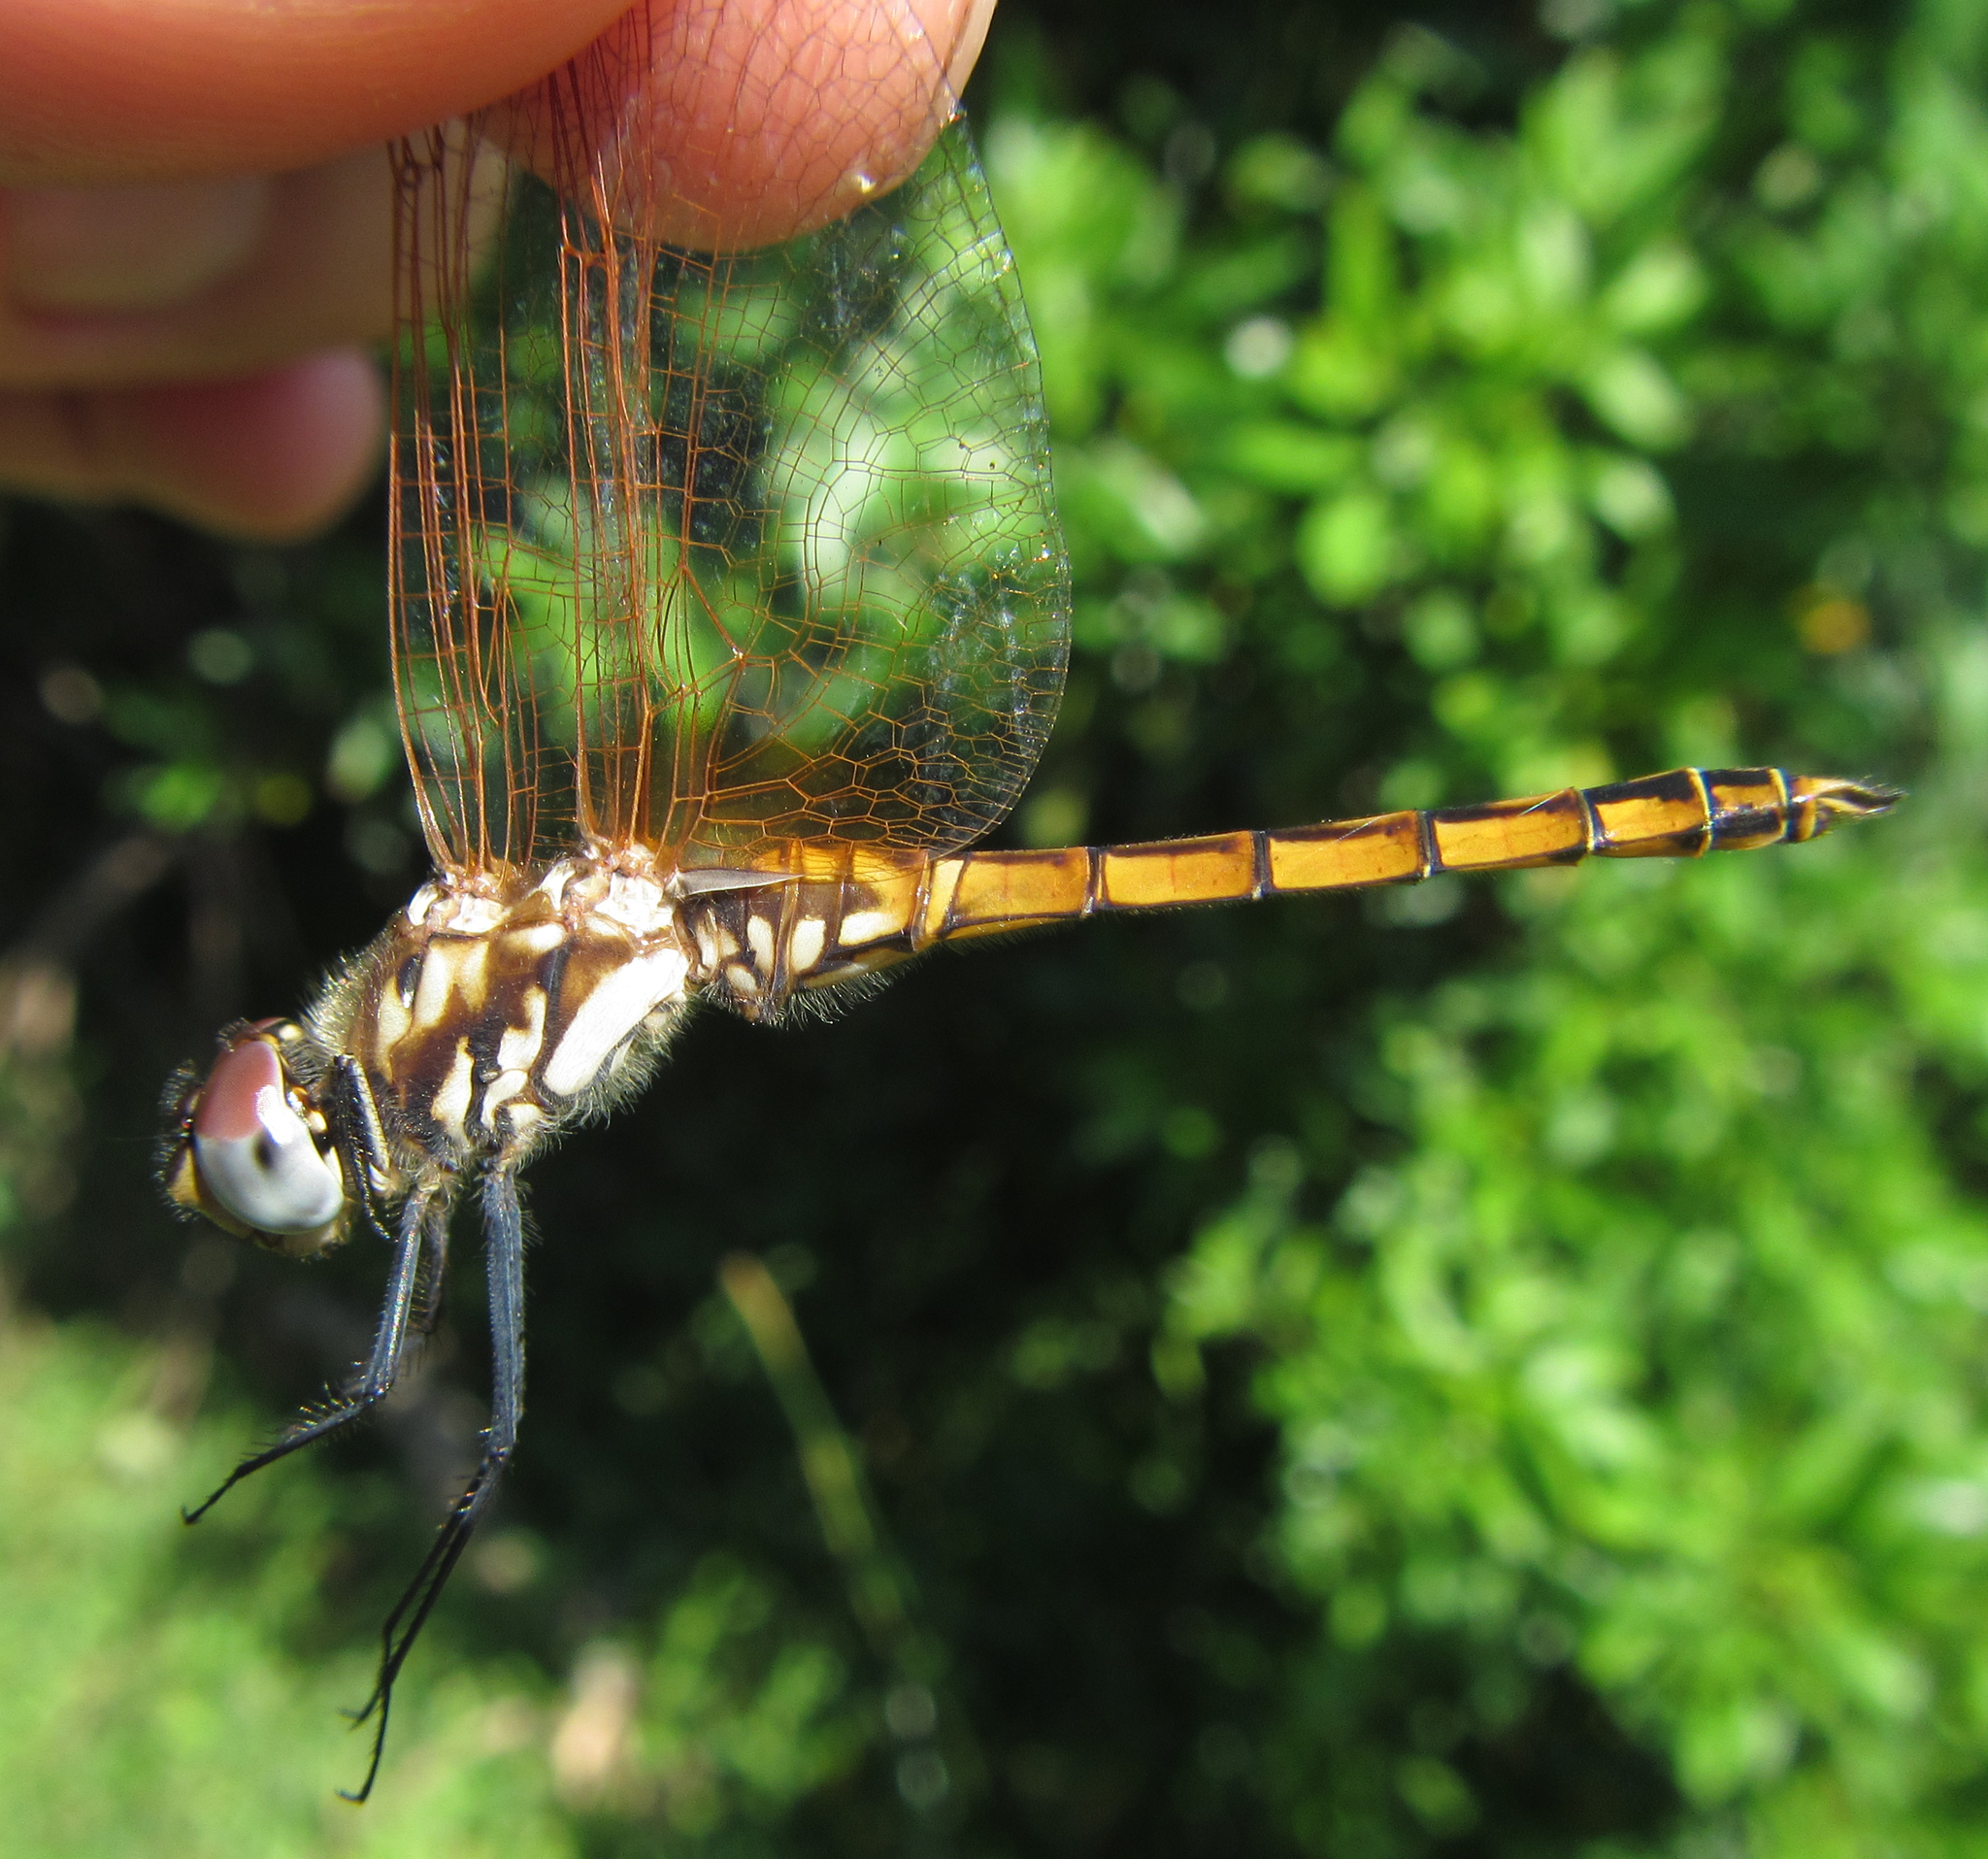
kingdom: Animalia
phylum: Arthropoda
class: Insecta
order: Odonata
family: Libellulidae
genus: Trithemis
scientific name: Trithemis annulata
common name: Violet dropwing
